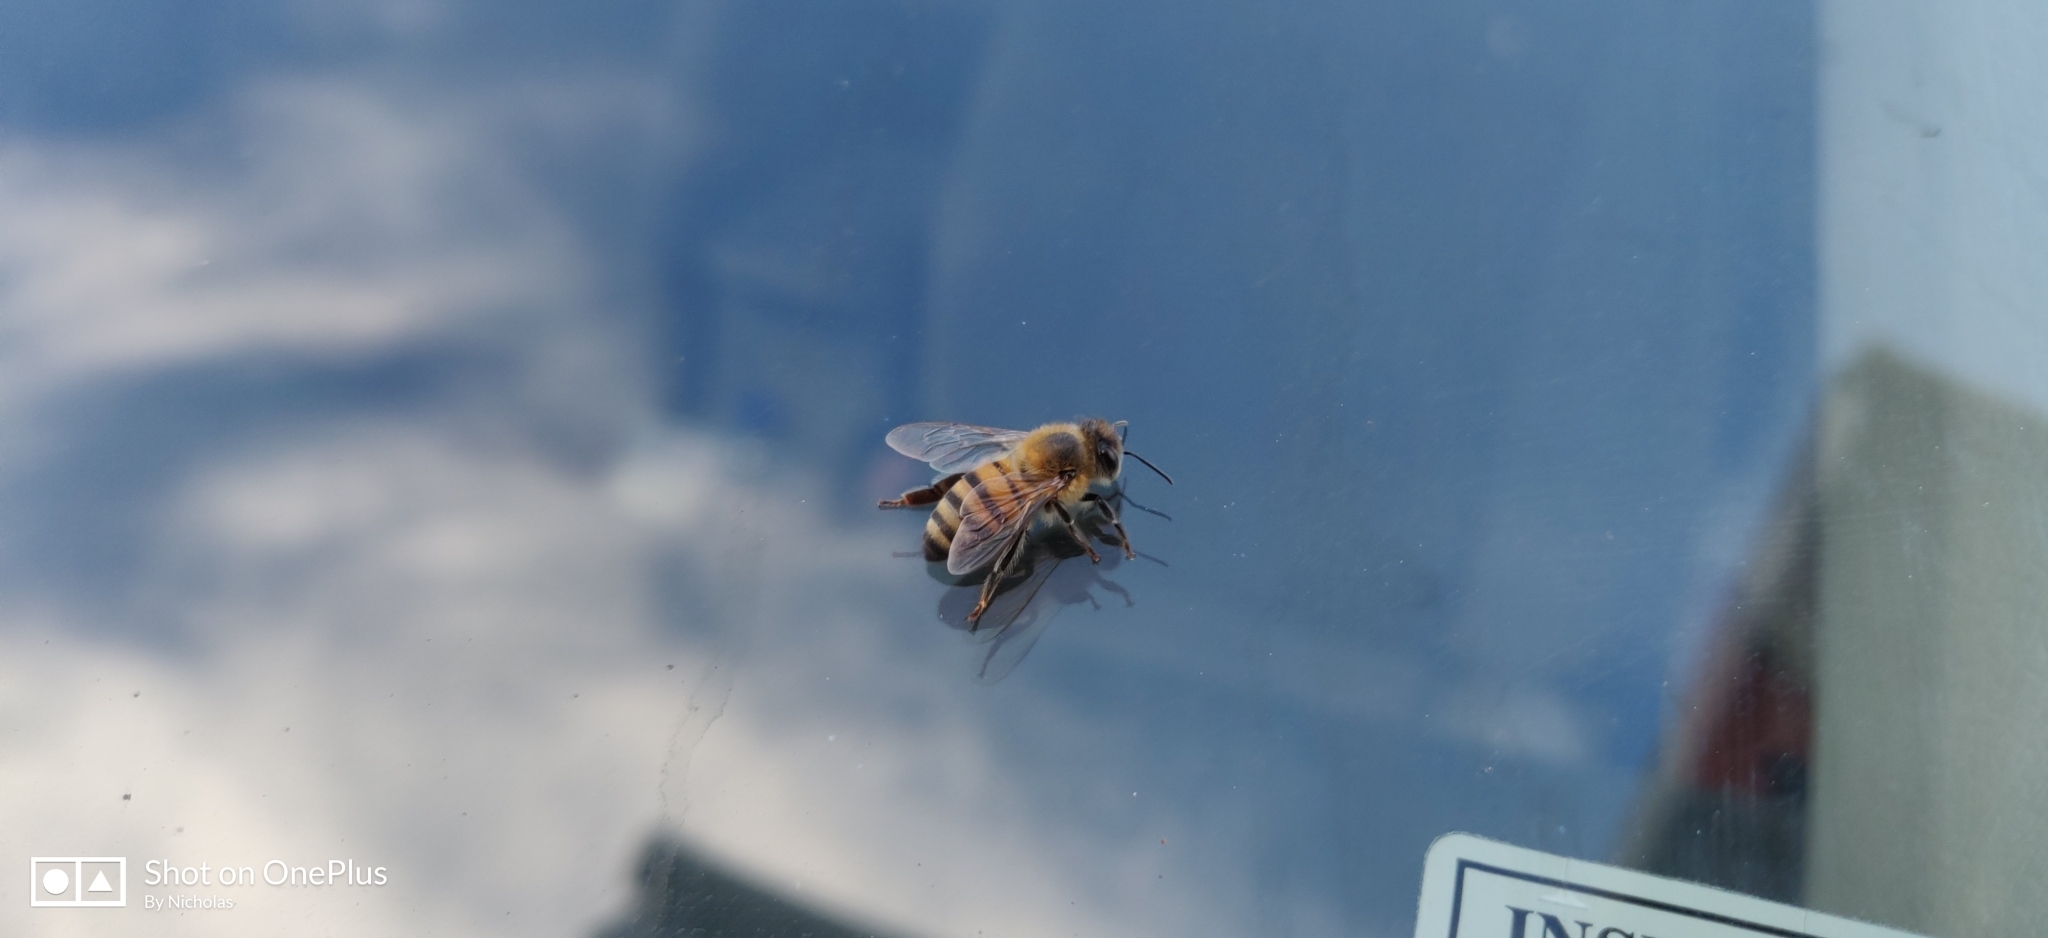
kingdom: Animalia
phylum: Arthropoda
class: Insecta
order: Hymenoptera
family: Apidae
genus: Apis
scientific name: Apis mellifera
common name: Honey bee
